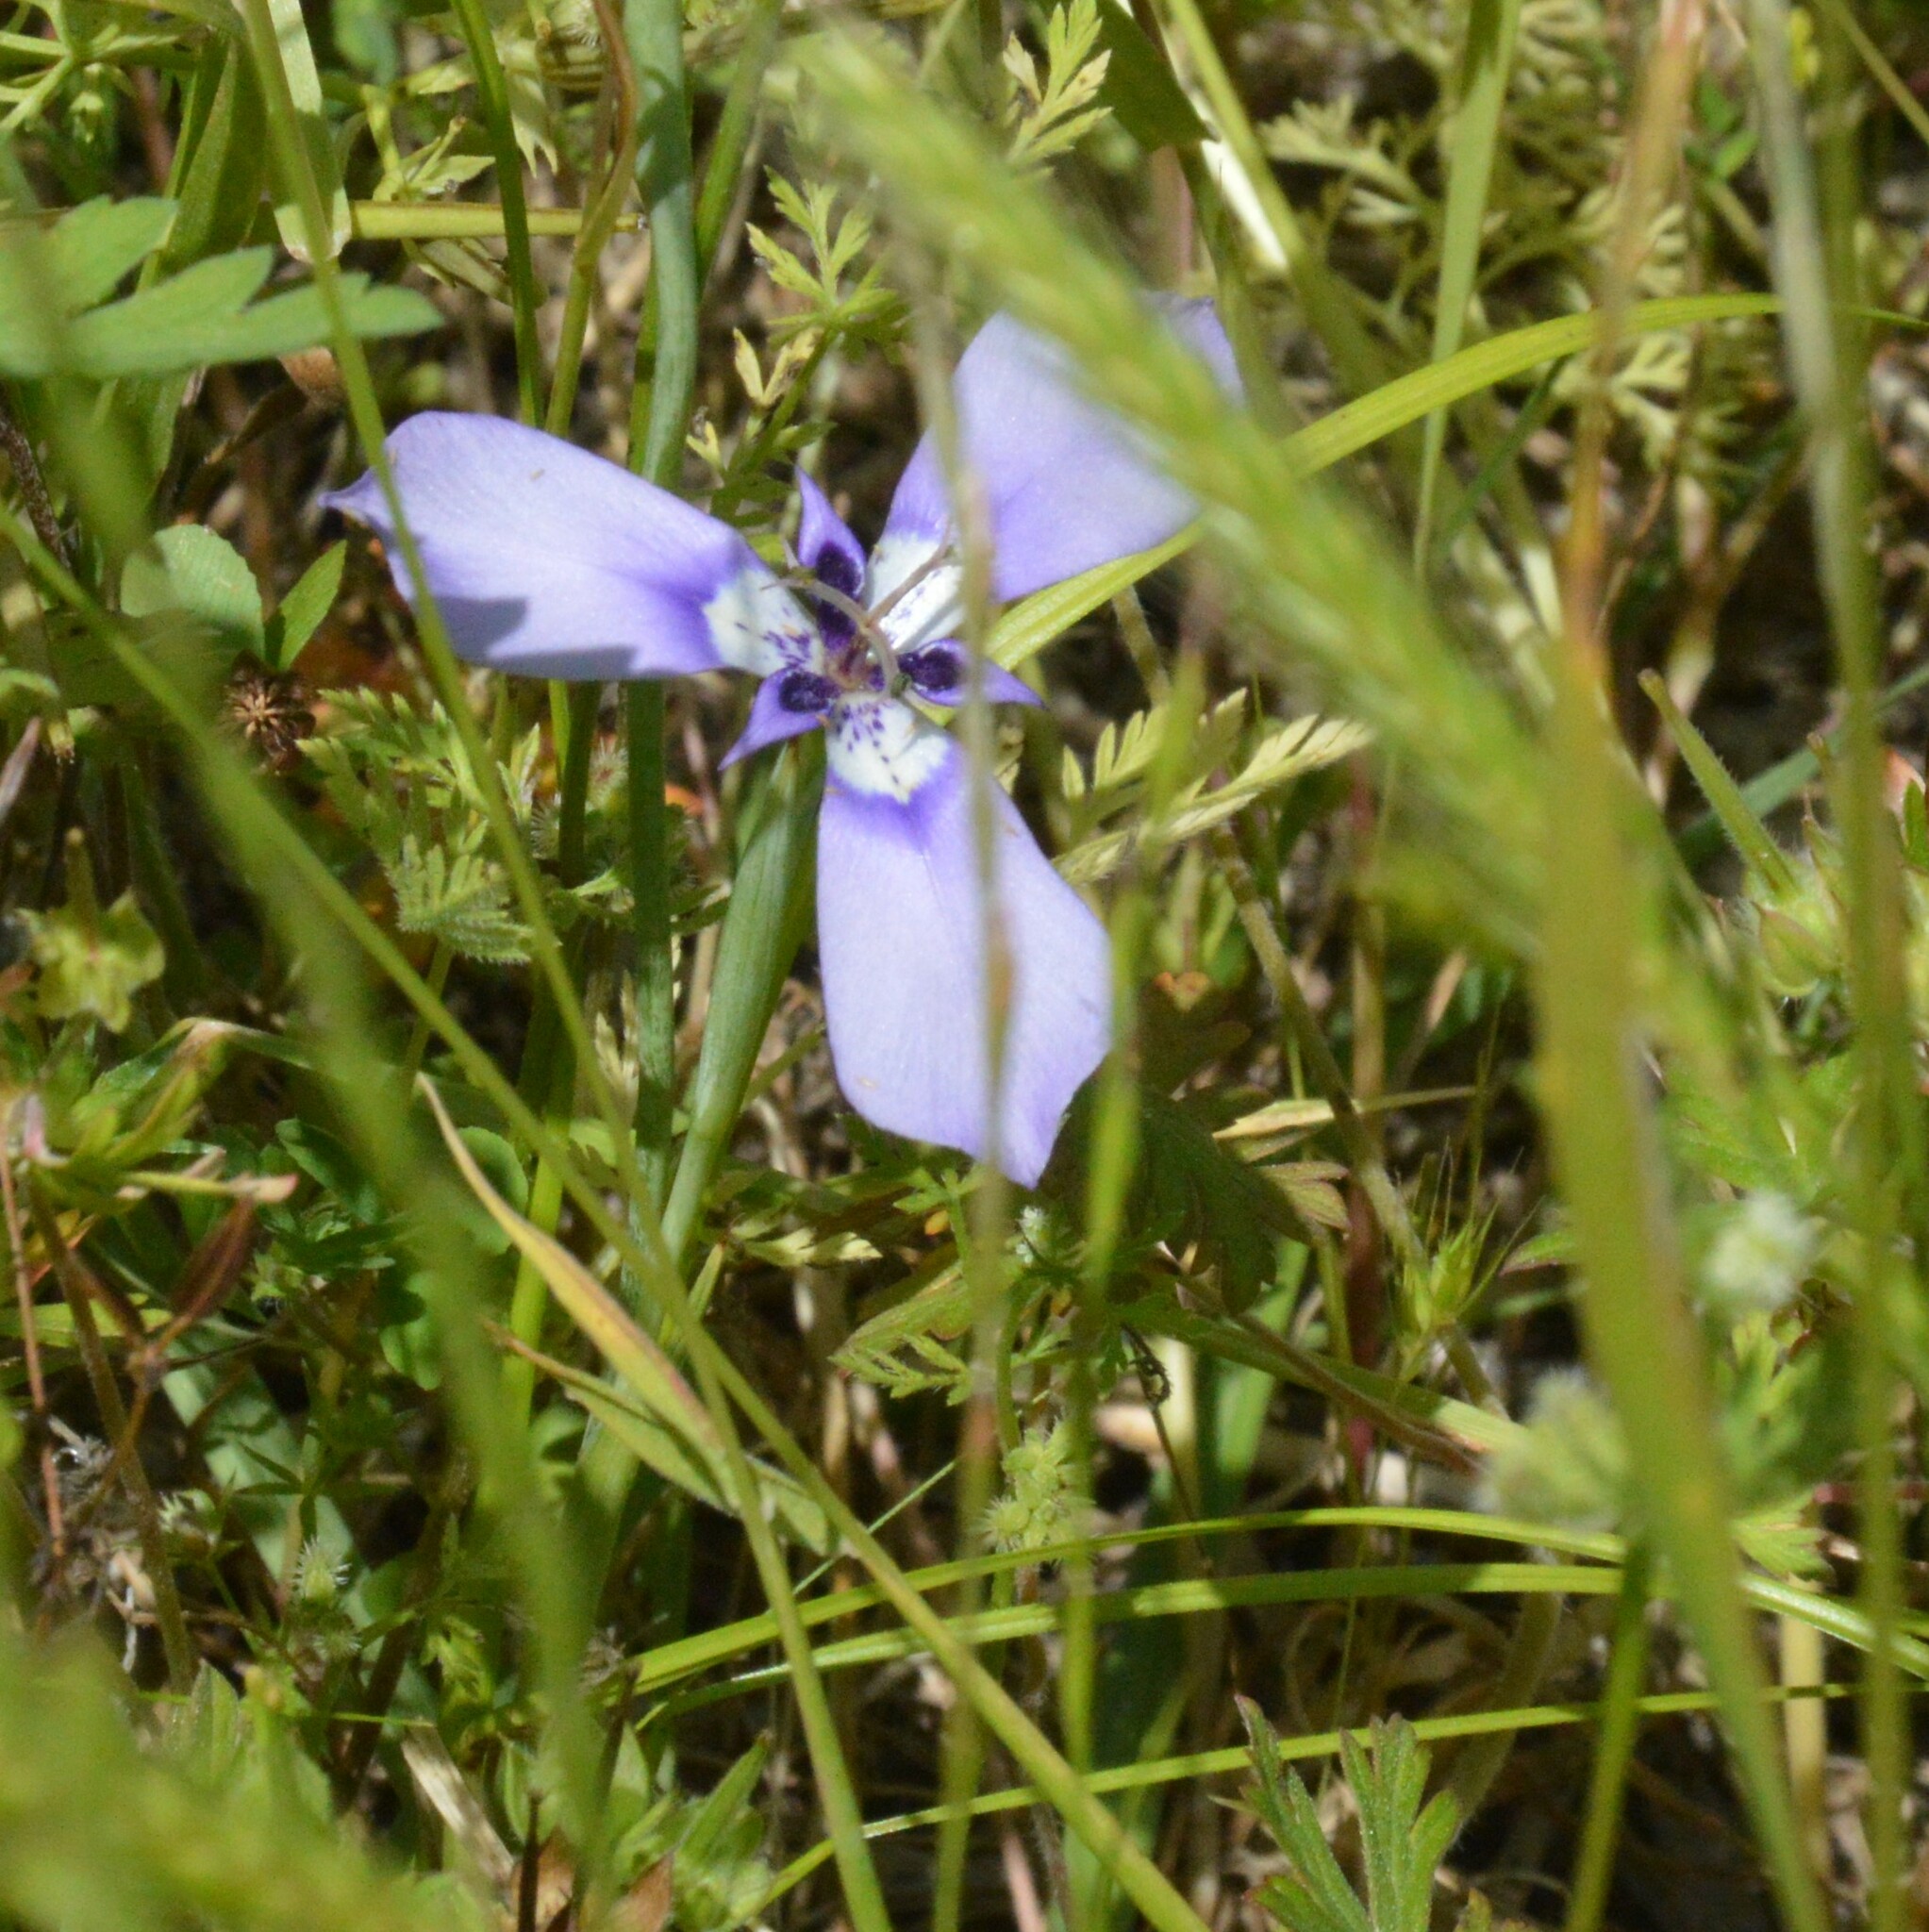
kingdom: Plantae
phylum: Tracheophyta
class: Liliopsida
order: Asparagales
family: Iridaceae
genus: Herbertia
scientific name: Herbertia lahue
